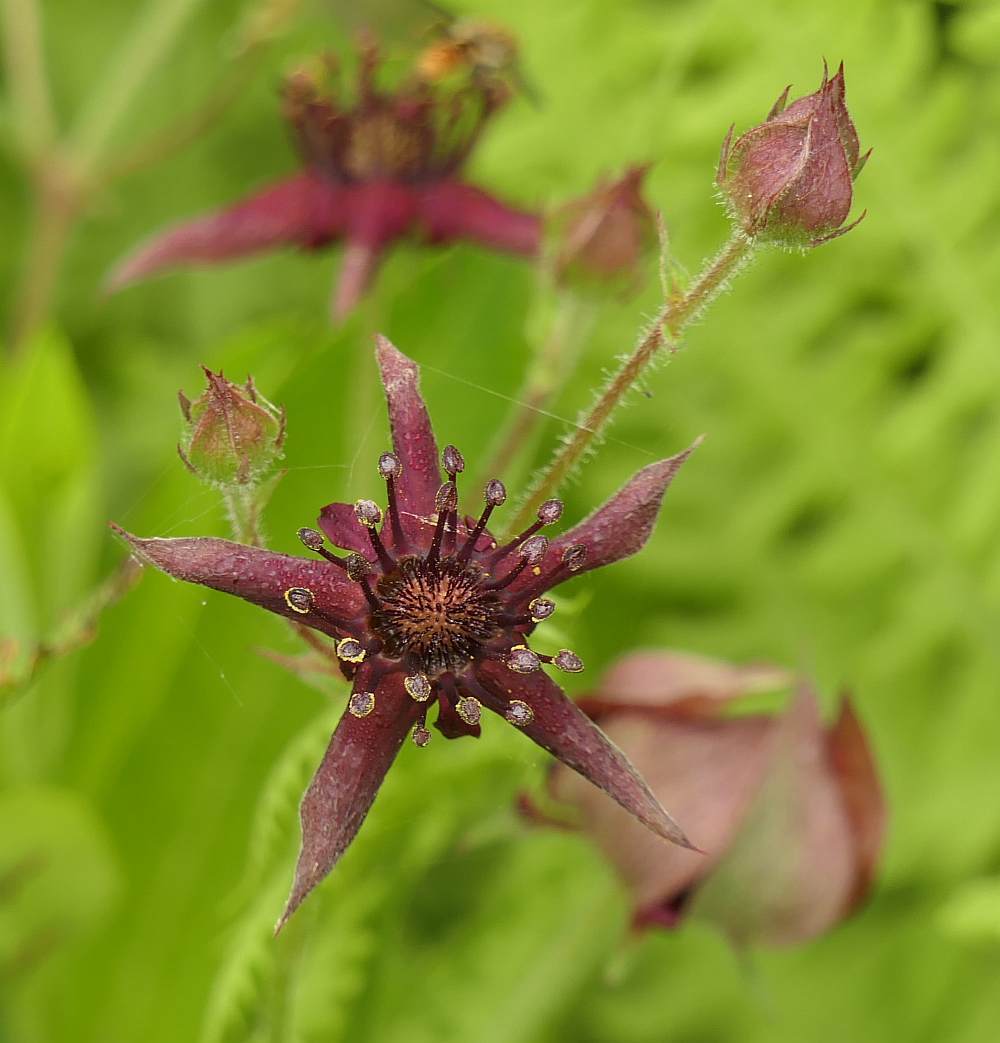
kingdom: Plantae
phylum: Tracheophyta
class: Magnoliopsida
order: Rosales
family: Rosaceae
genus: Comarum
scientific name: Comarum palustre
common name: Marsh cinquefoil
